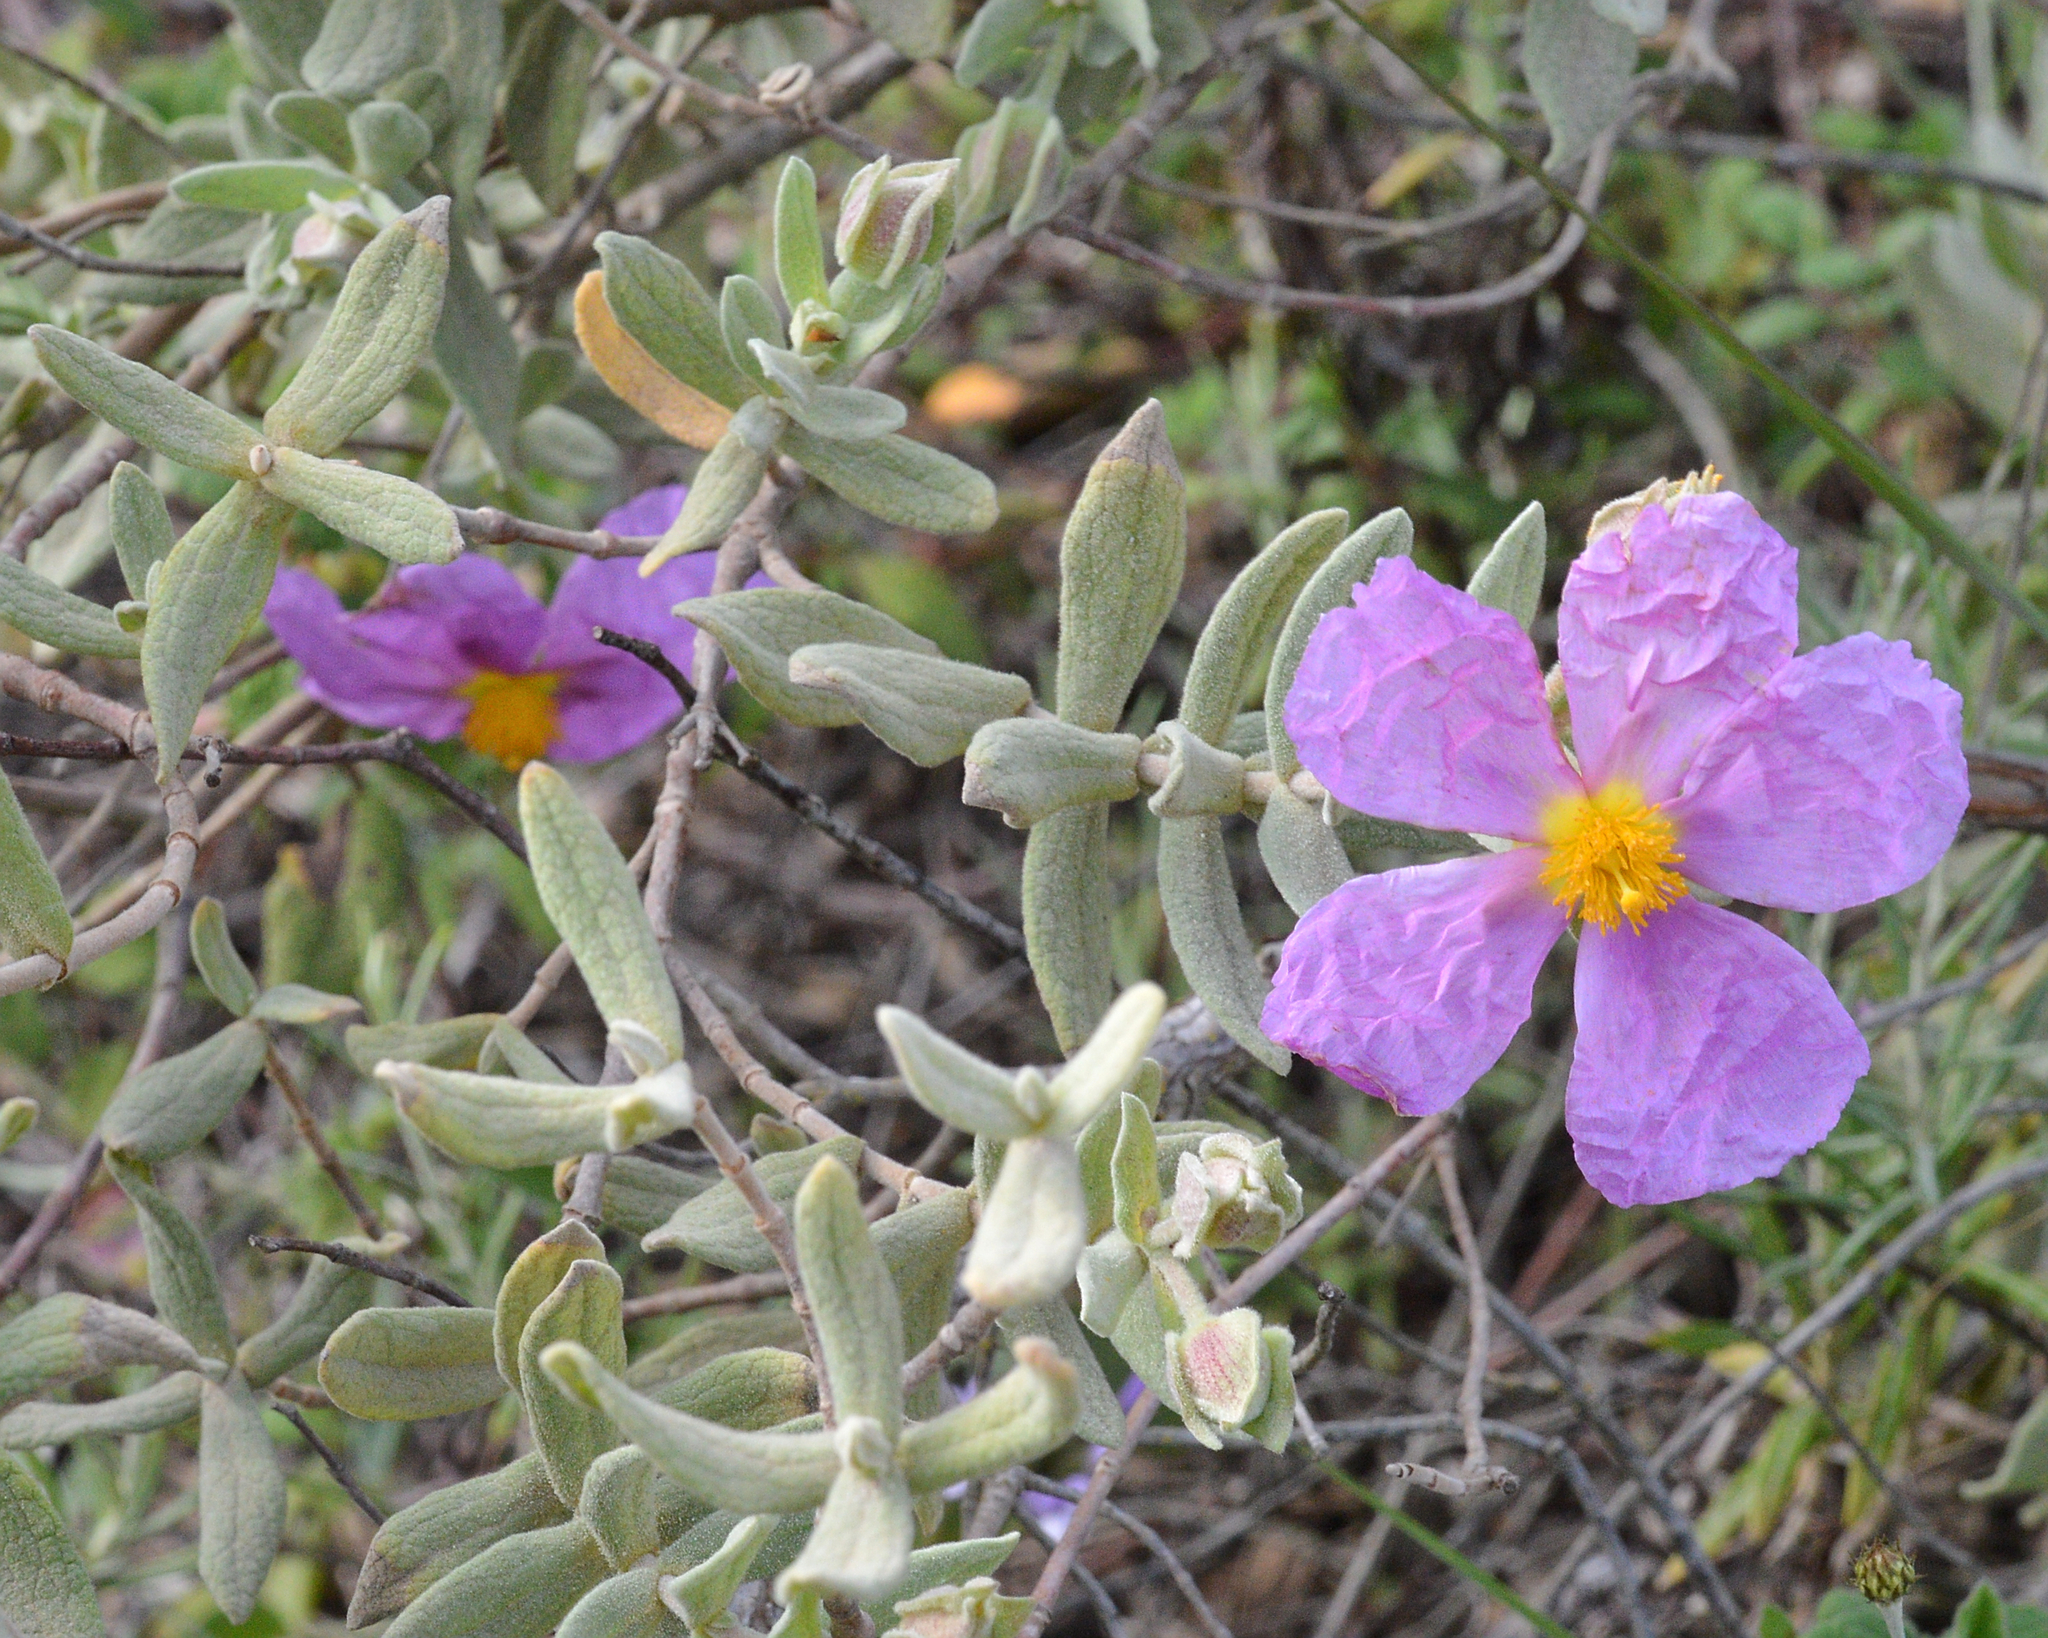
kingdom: Plantae
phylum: Tracheophyta
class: Magnoliopsida
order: Malvales
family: Cistaceae
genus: Cistus
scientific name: Cistus albidus
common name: White-leaf rock-rose
